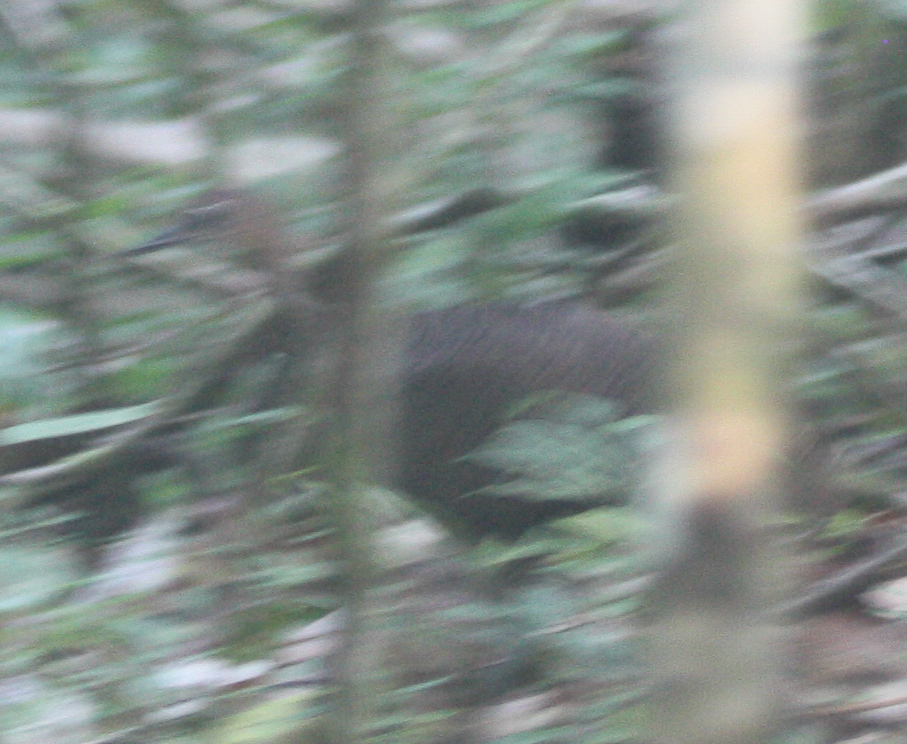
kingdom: Animalia
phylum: Chordata
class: Aves
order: Tinamiformes
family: Tinamidae
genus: Tinamus
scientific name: Tinamus major
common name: Great tinamou
